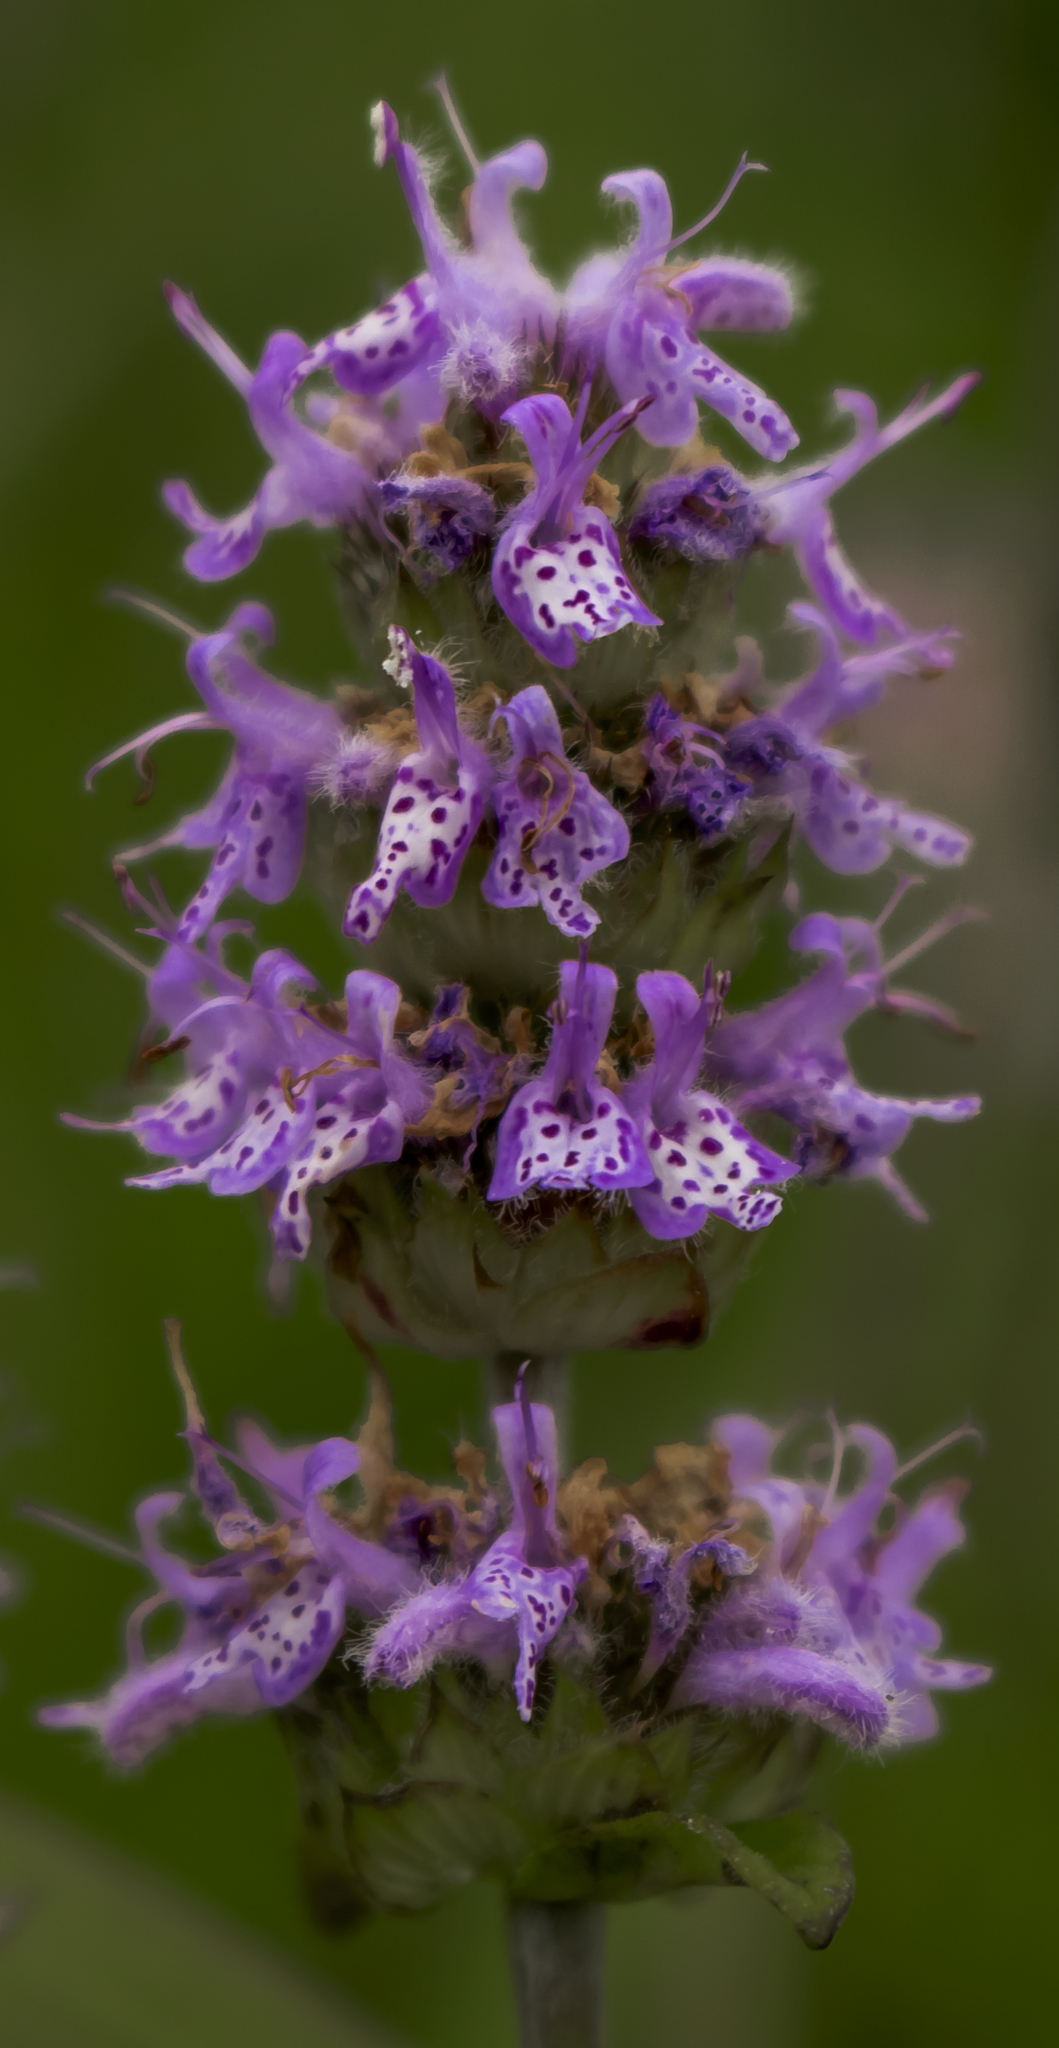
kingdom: Plantae
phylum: Tracheophyta
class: Magnoliopsida
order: Lamiales
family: Lamiaceae
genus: Blephilia
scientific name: Blephilia ciliata
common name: Downy blephilia
